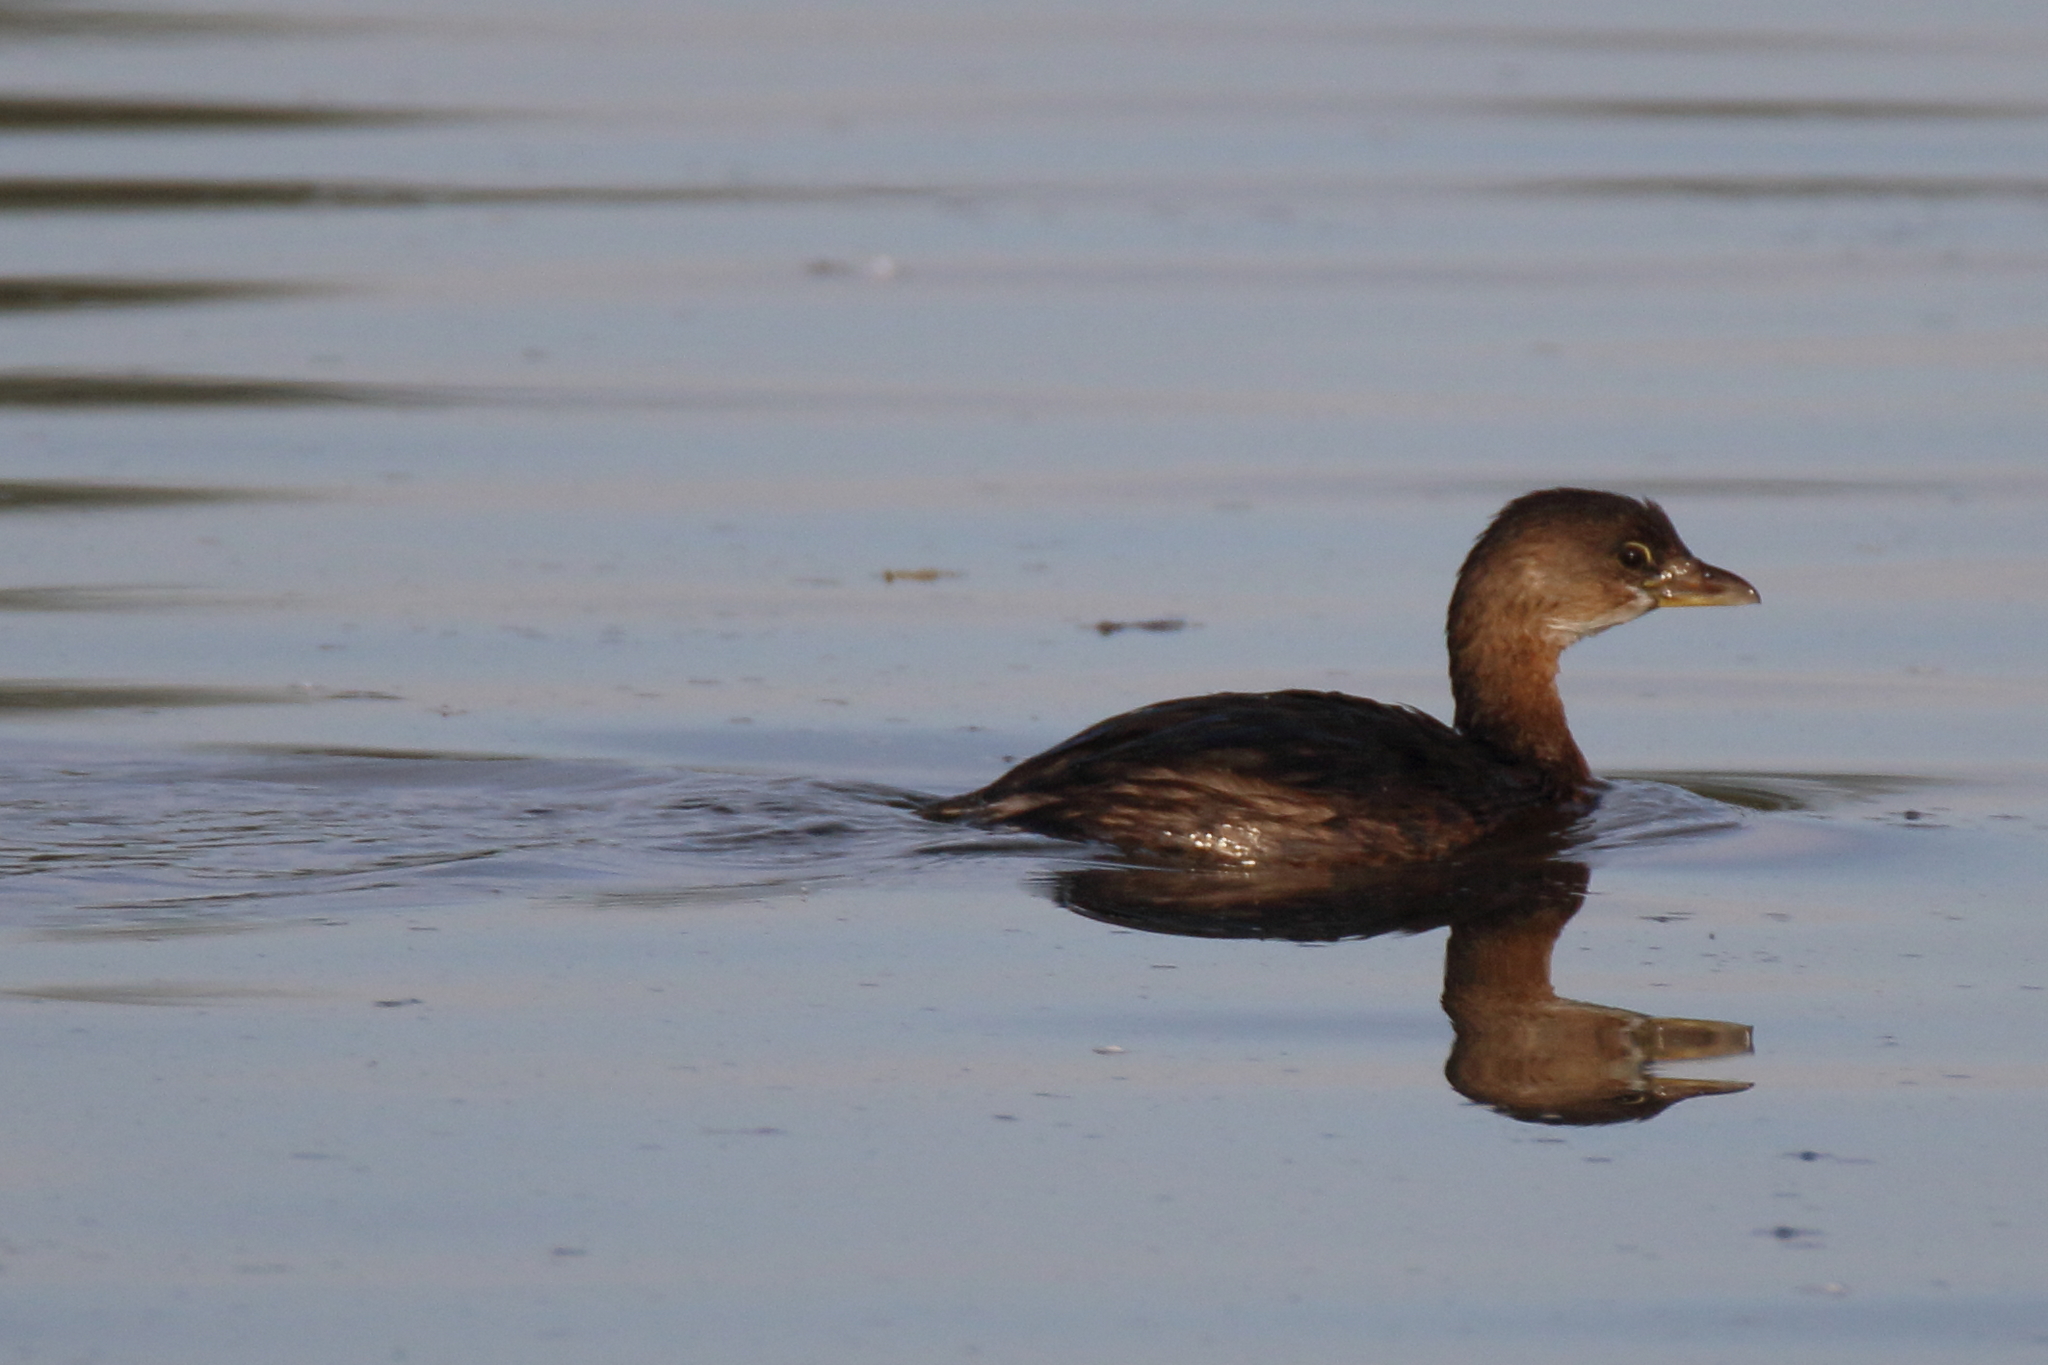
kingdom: Animalia
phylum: Chordata
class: Aves
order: Podicipediformes
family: Podicipedidae
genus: Podilymbus
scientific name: Podilymbus podiceps
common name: Pied-billed grebe
